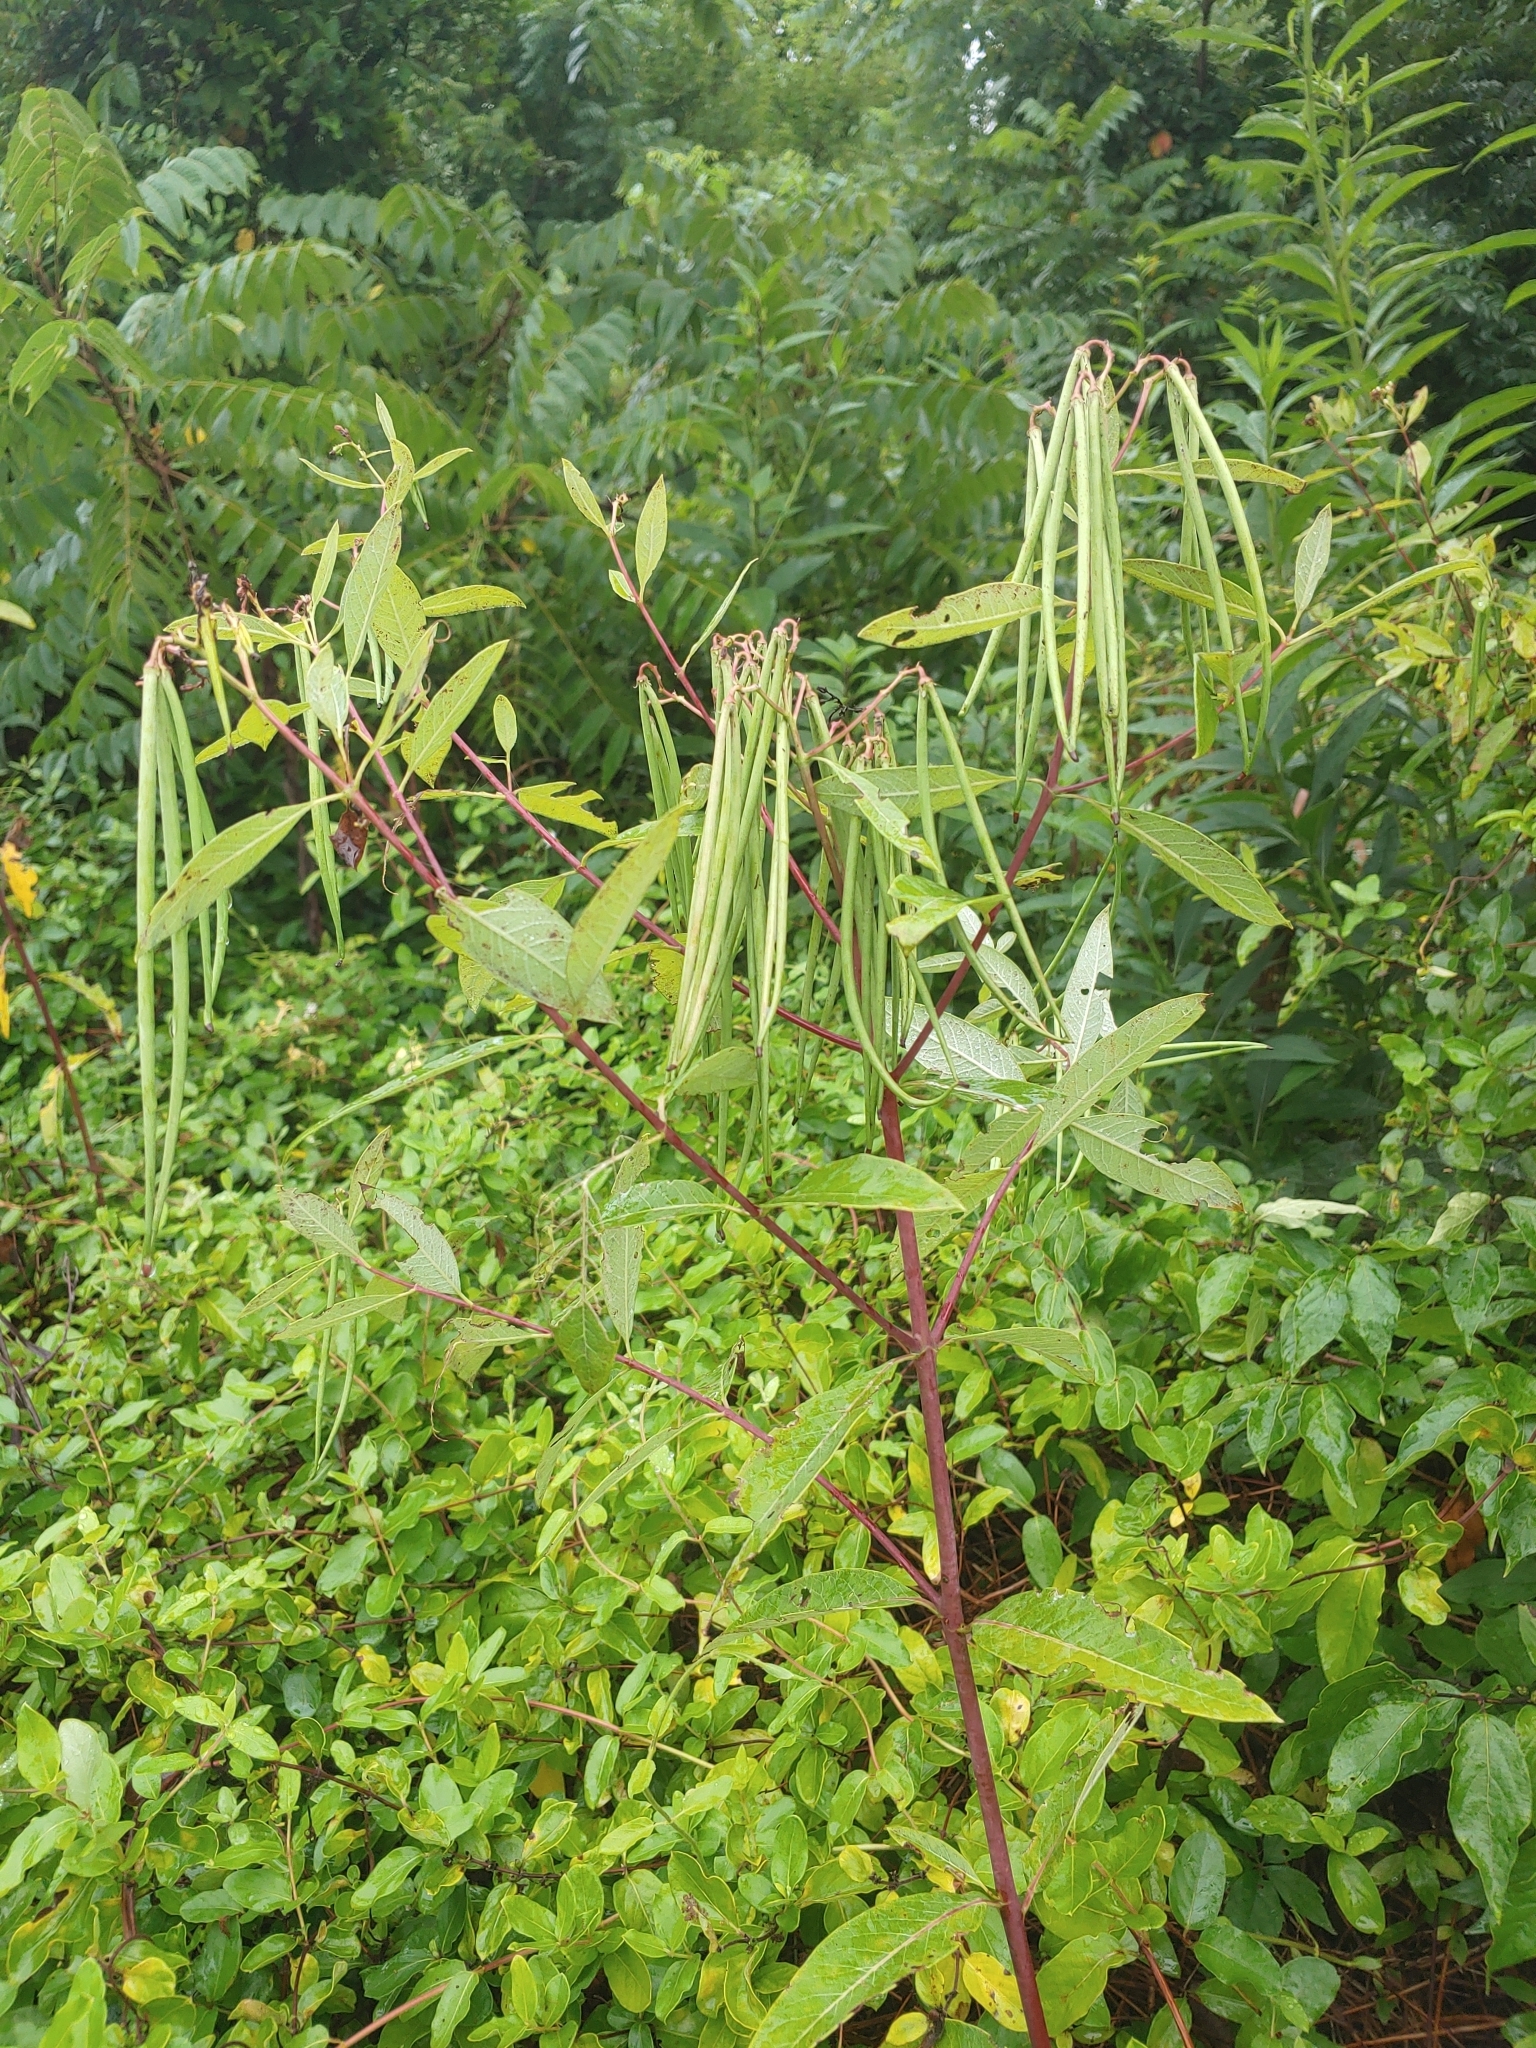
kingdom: Plantae
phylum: Tracheophyta
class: Magnoliopsida
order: Gentianales
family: Apocynaceae
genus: Apocynum
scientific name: Apocynum cannabinum
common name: Hemp dogbane
